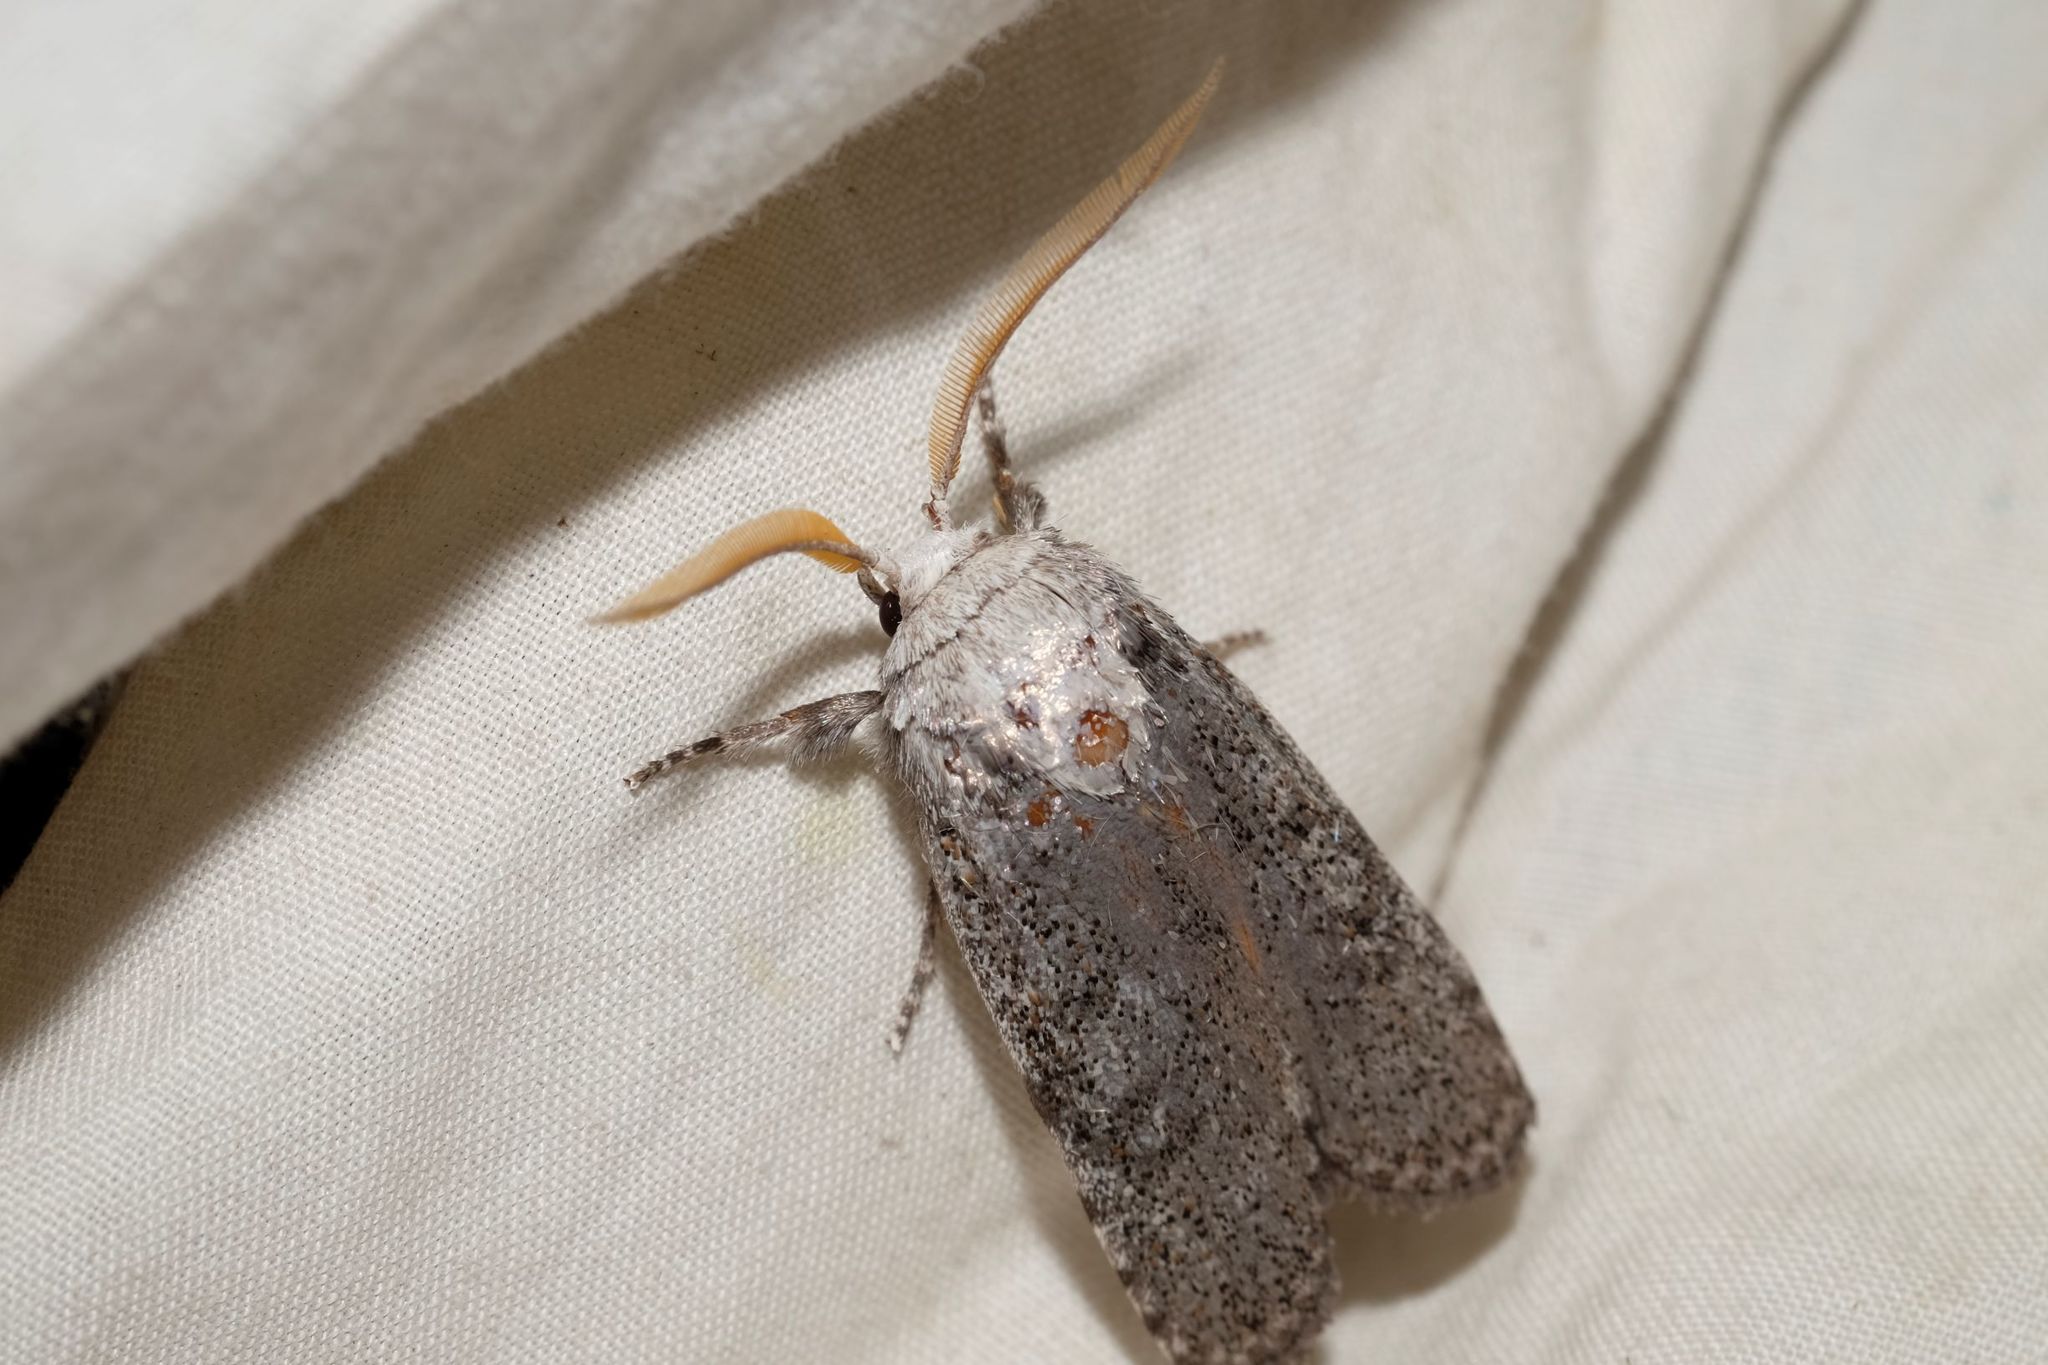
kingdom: Animalia
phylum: Arthropoda
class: Insecta
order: Lepidoptera
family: Xyloryctidae
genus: Cryptophasa
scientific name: Cryptophasa irrorata
